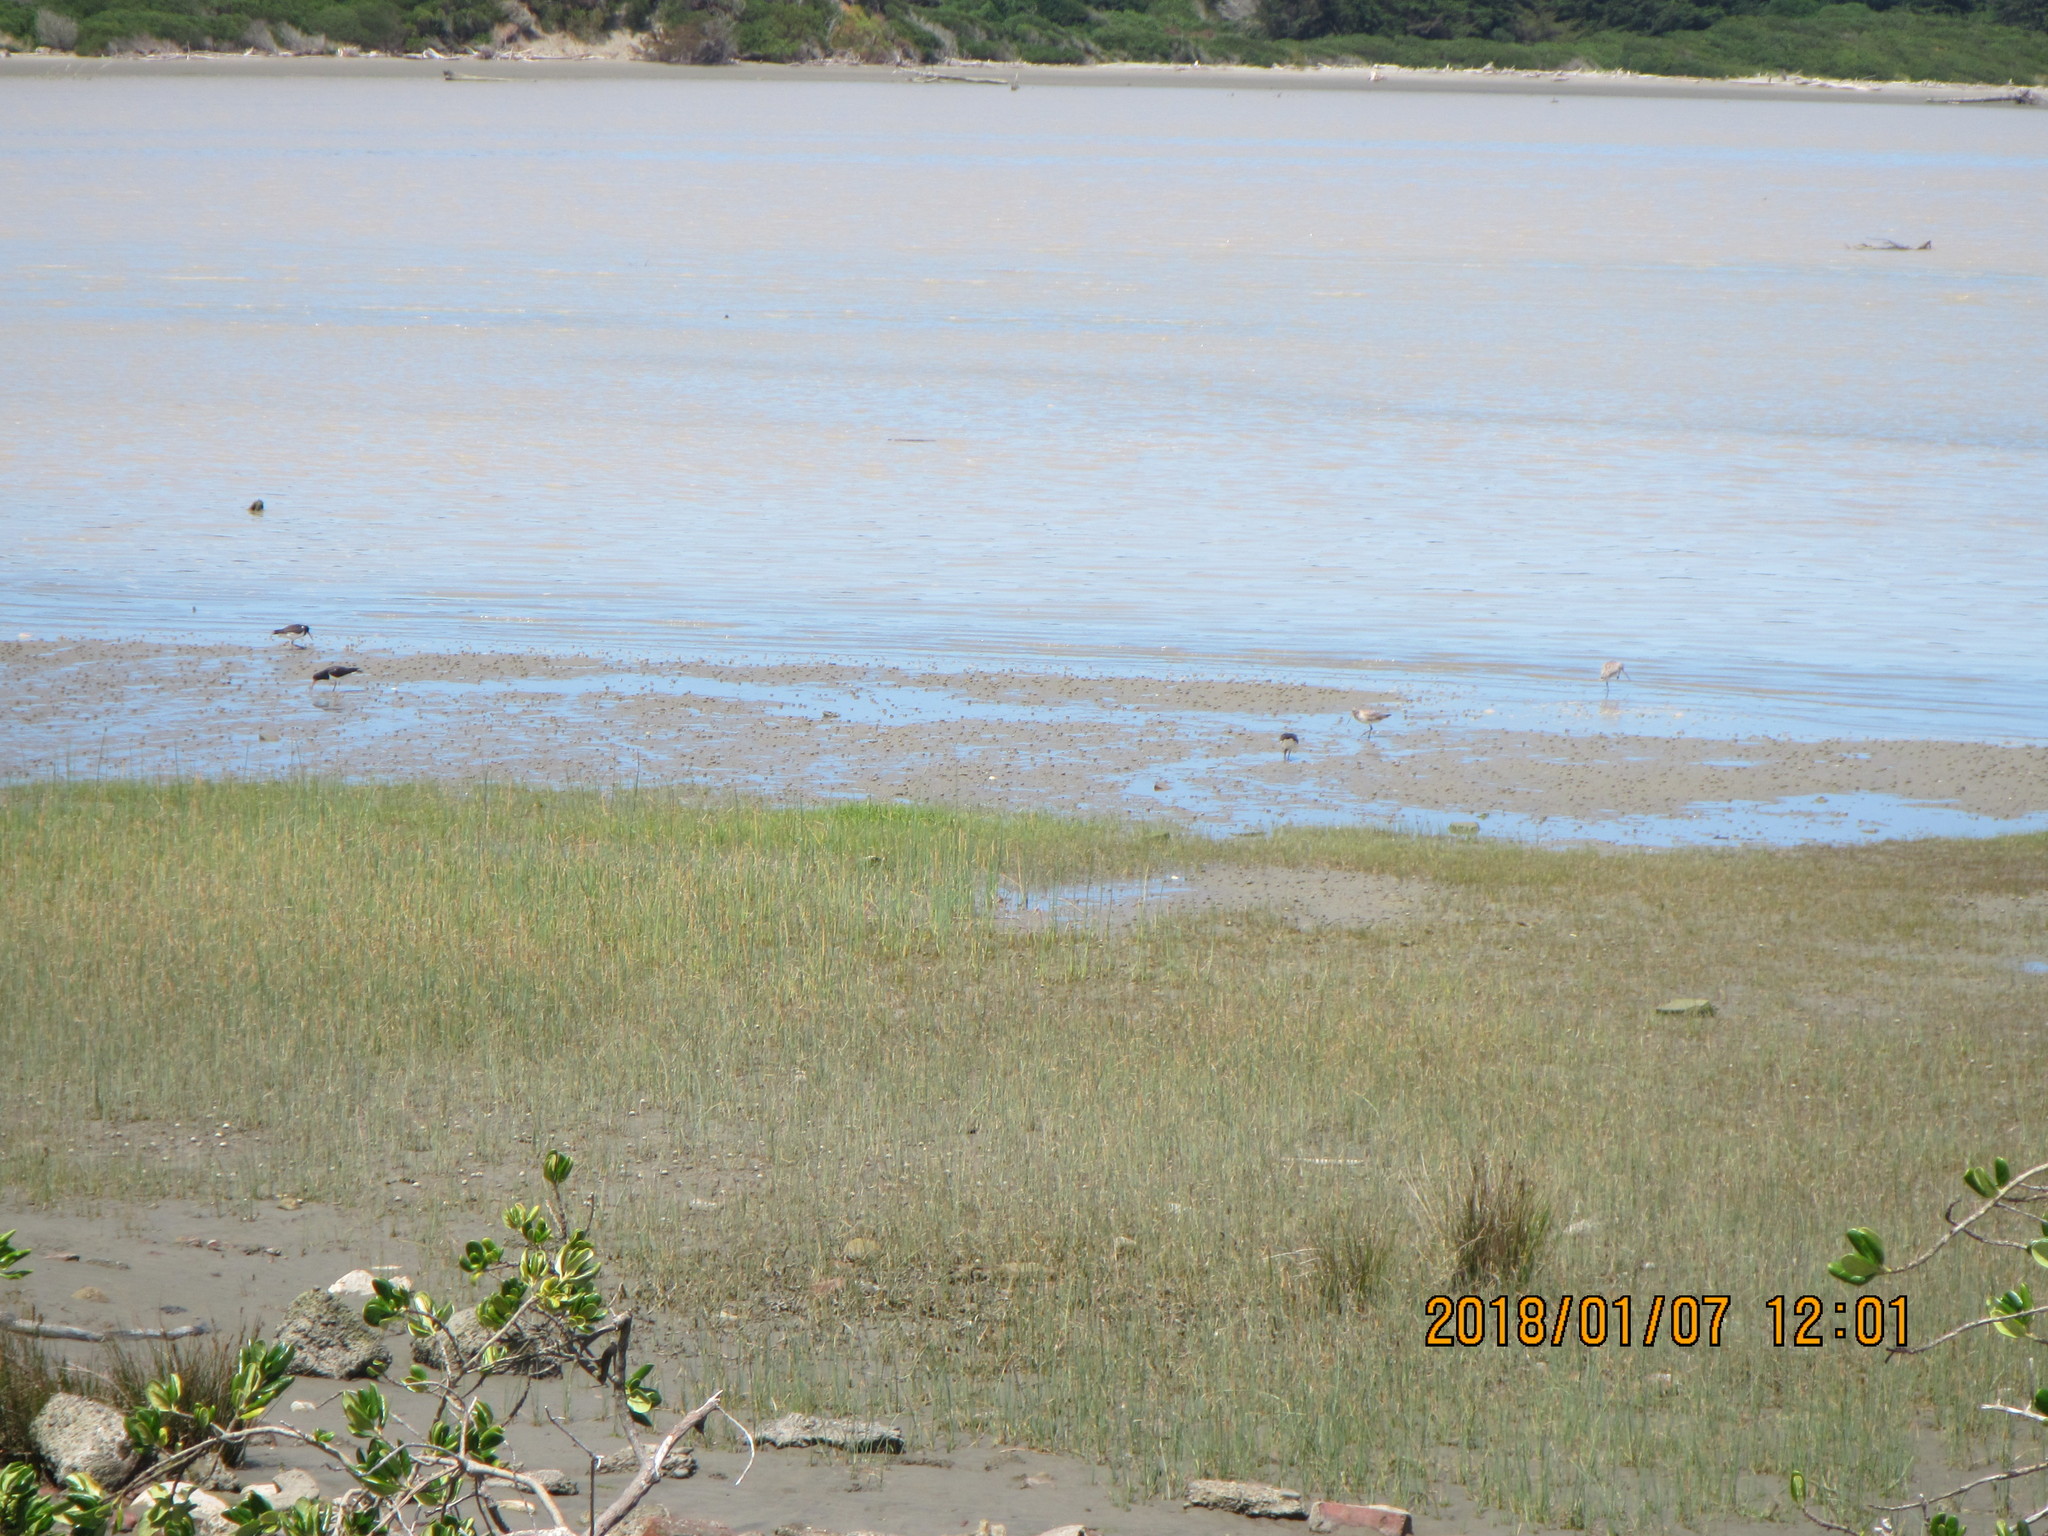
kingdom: Animalia
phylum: Chordata
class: Aves
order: Charadriiformes
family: Scolopacidae
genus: Limosa
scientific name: Limosa lapponica
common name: Bar-tailed godwit
